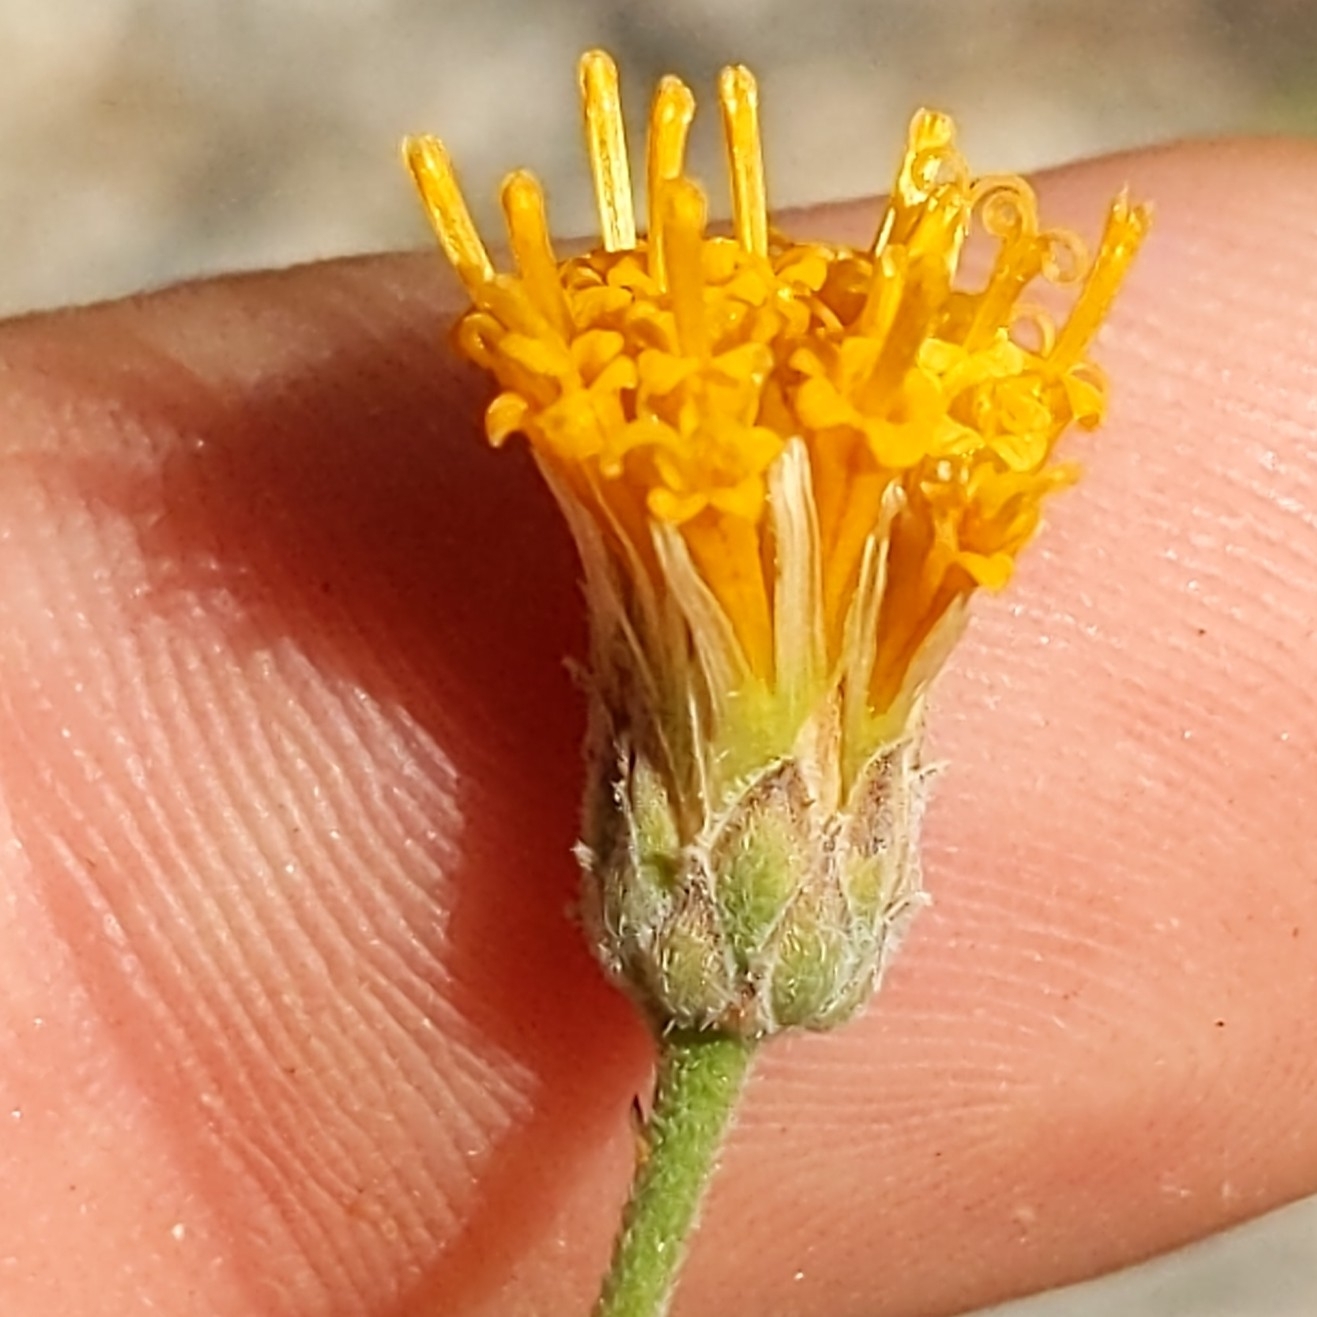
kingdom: Plantae
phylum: Tracheophyta
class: Magnoliopsida
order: Asterales
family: Asteraceae
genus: Bebbia
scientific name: Bebbia juncea
